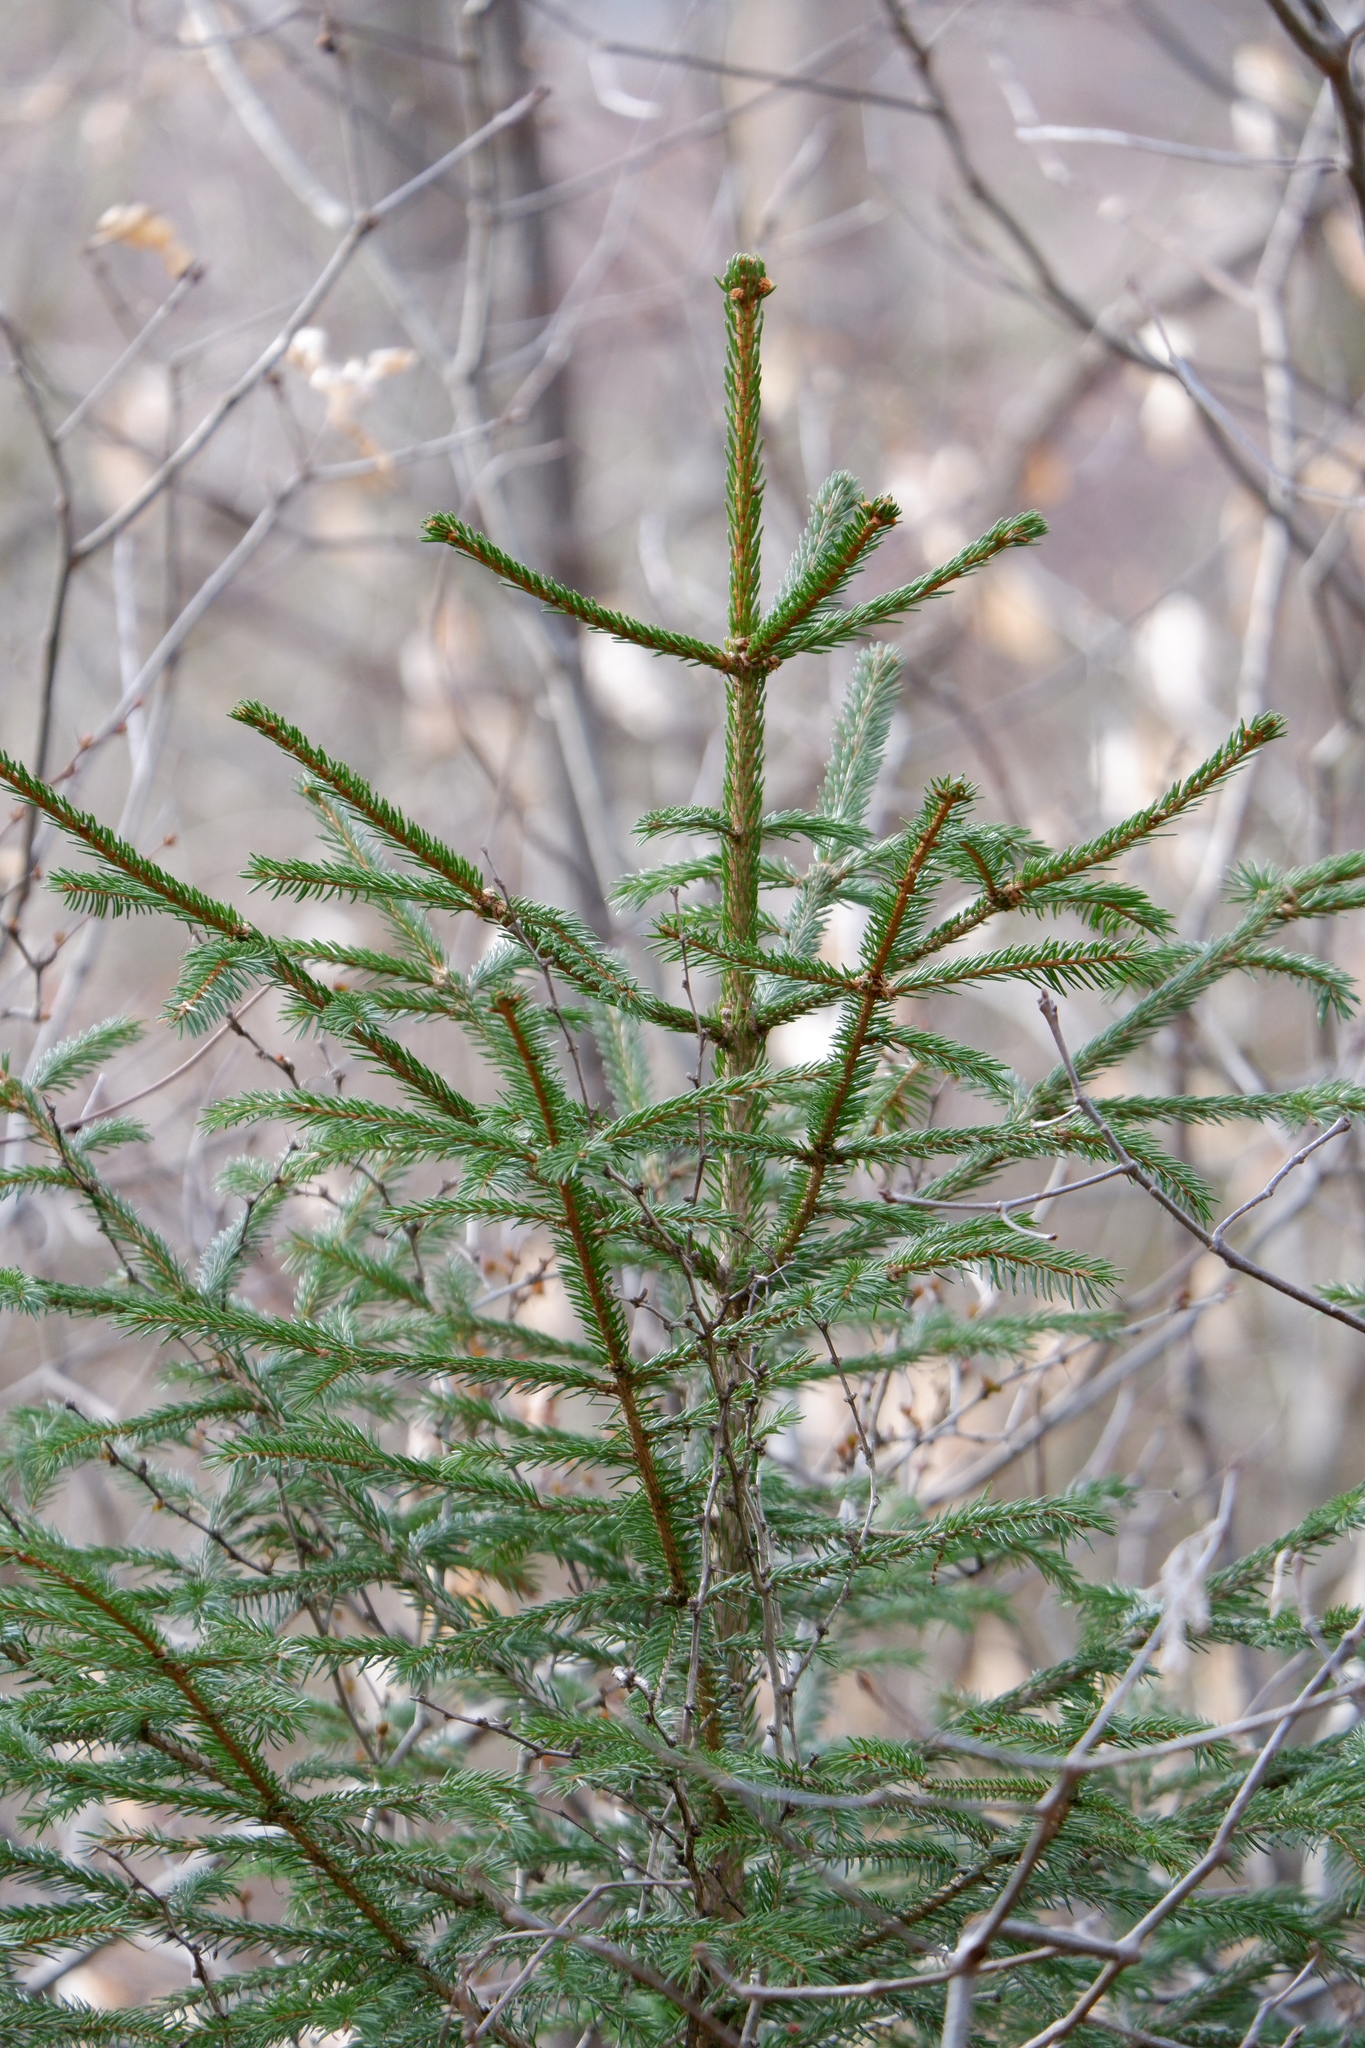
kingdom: Plantae
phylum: Tracheophyta
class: Pinopsida
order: Pinales
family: Pinaceae
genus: Picea
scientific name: Picea abies
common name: Norway spruce
